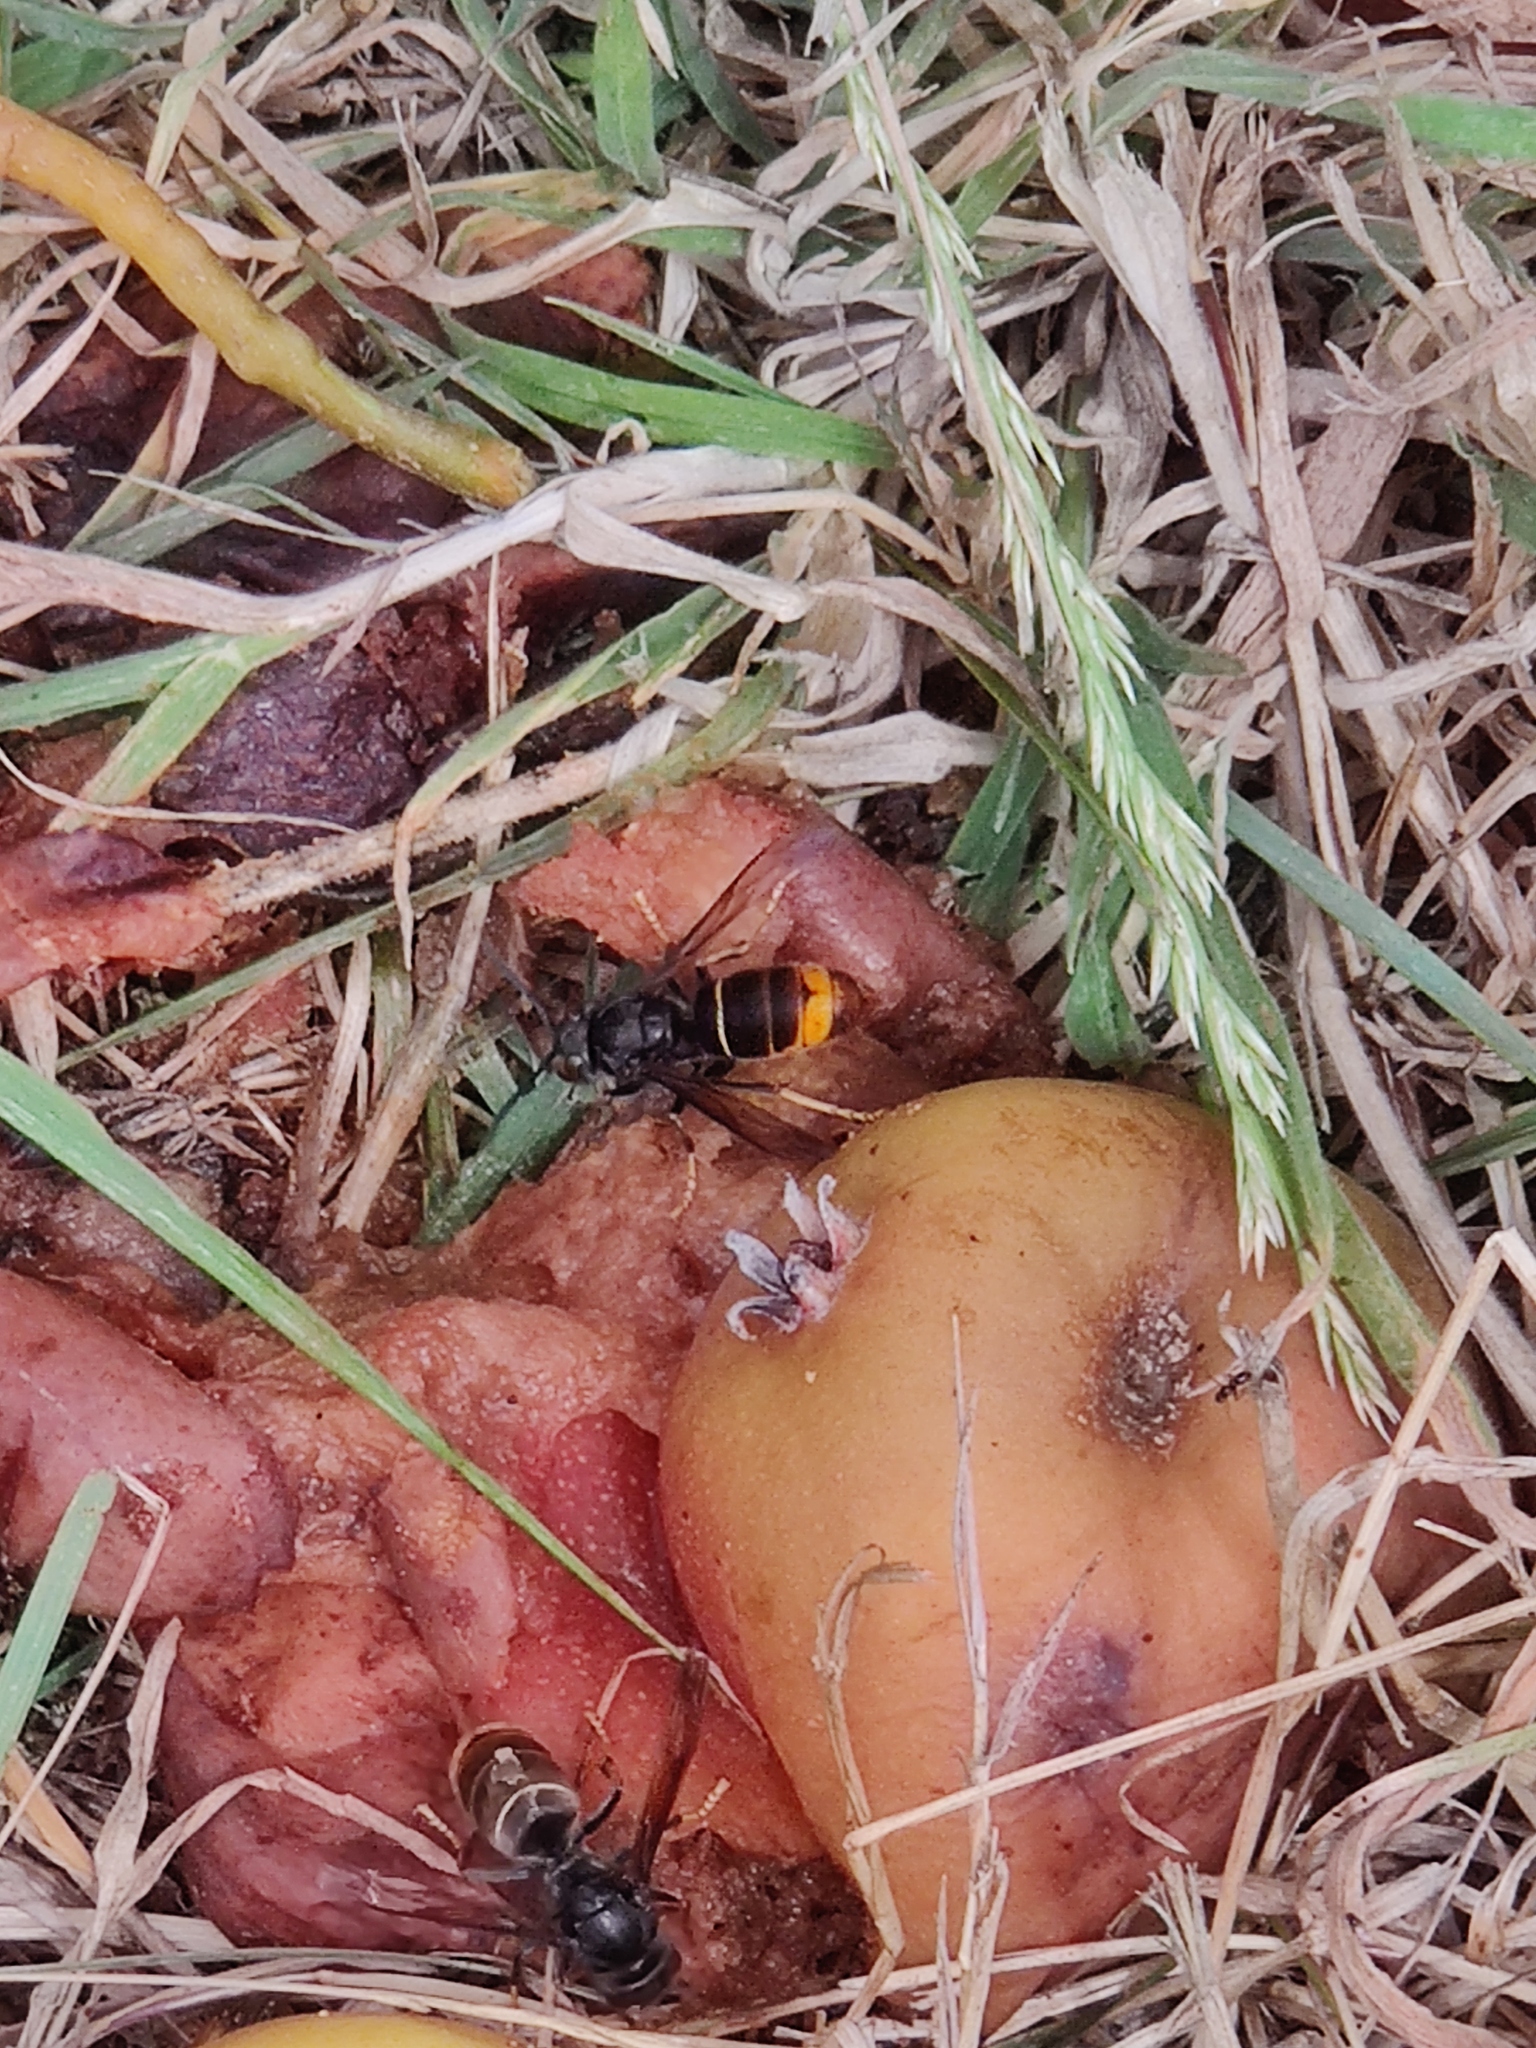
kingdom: Animalia
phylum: Arthropoda
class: Insecta
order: Hymenoptera
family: Vespidae
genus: Vespa
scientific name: Vespa velutina
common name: Asian hornet
